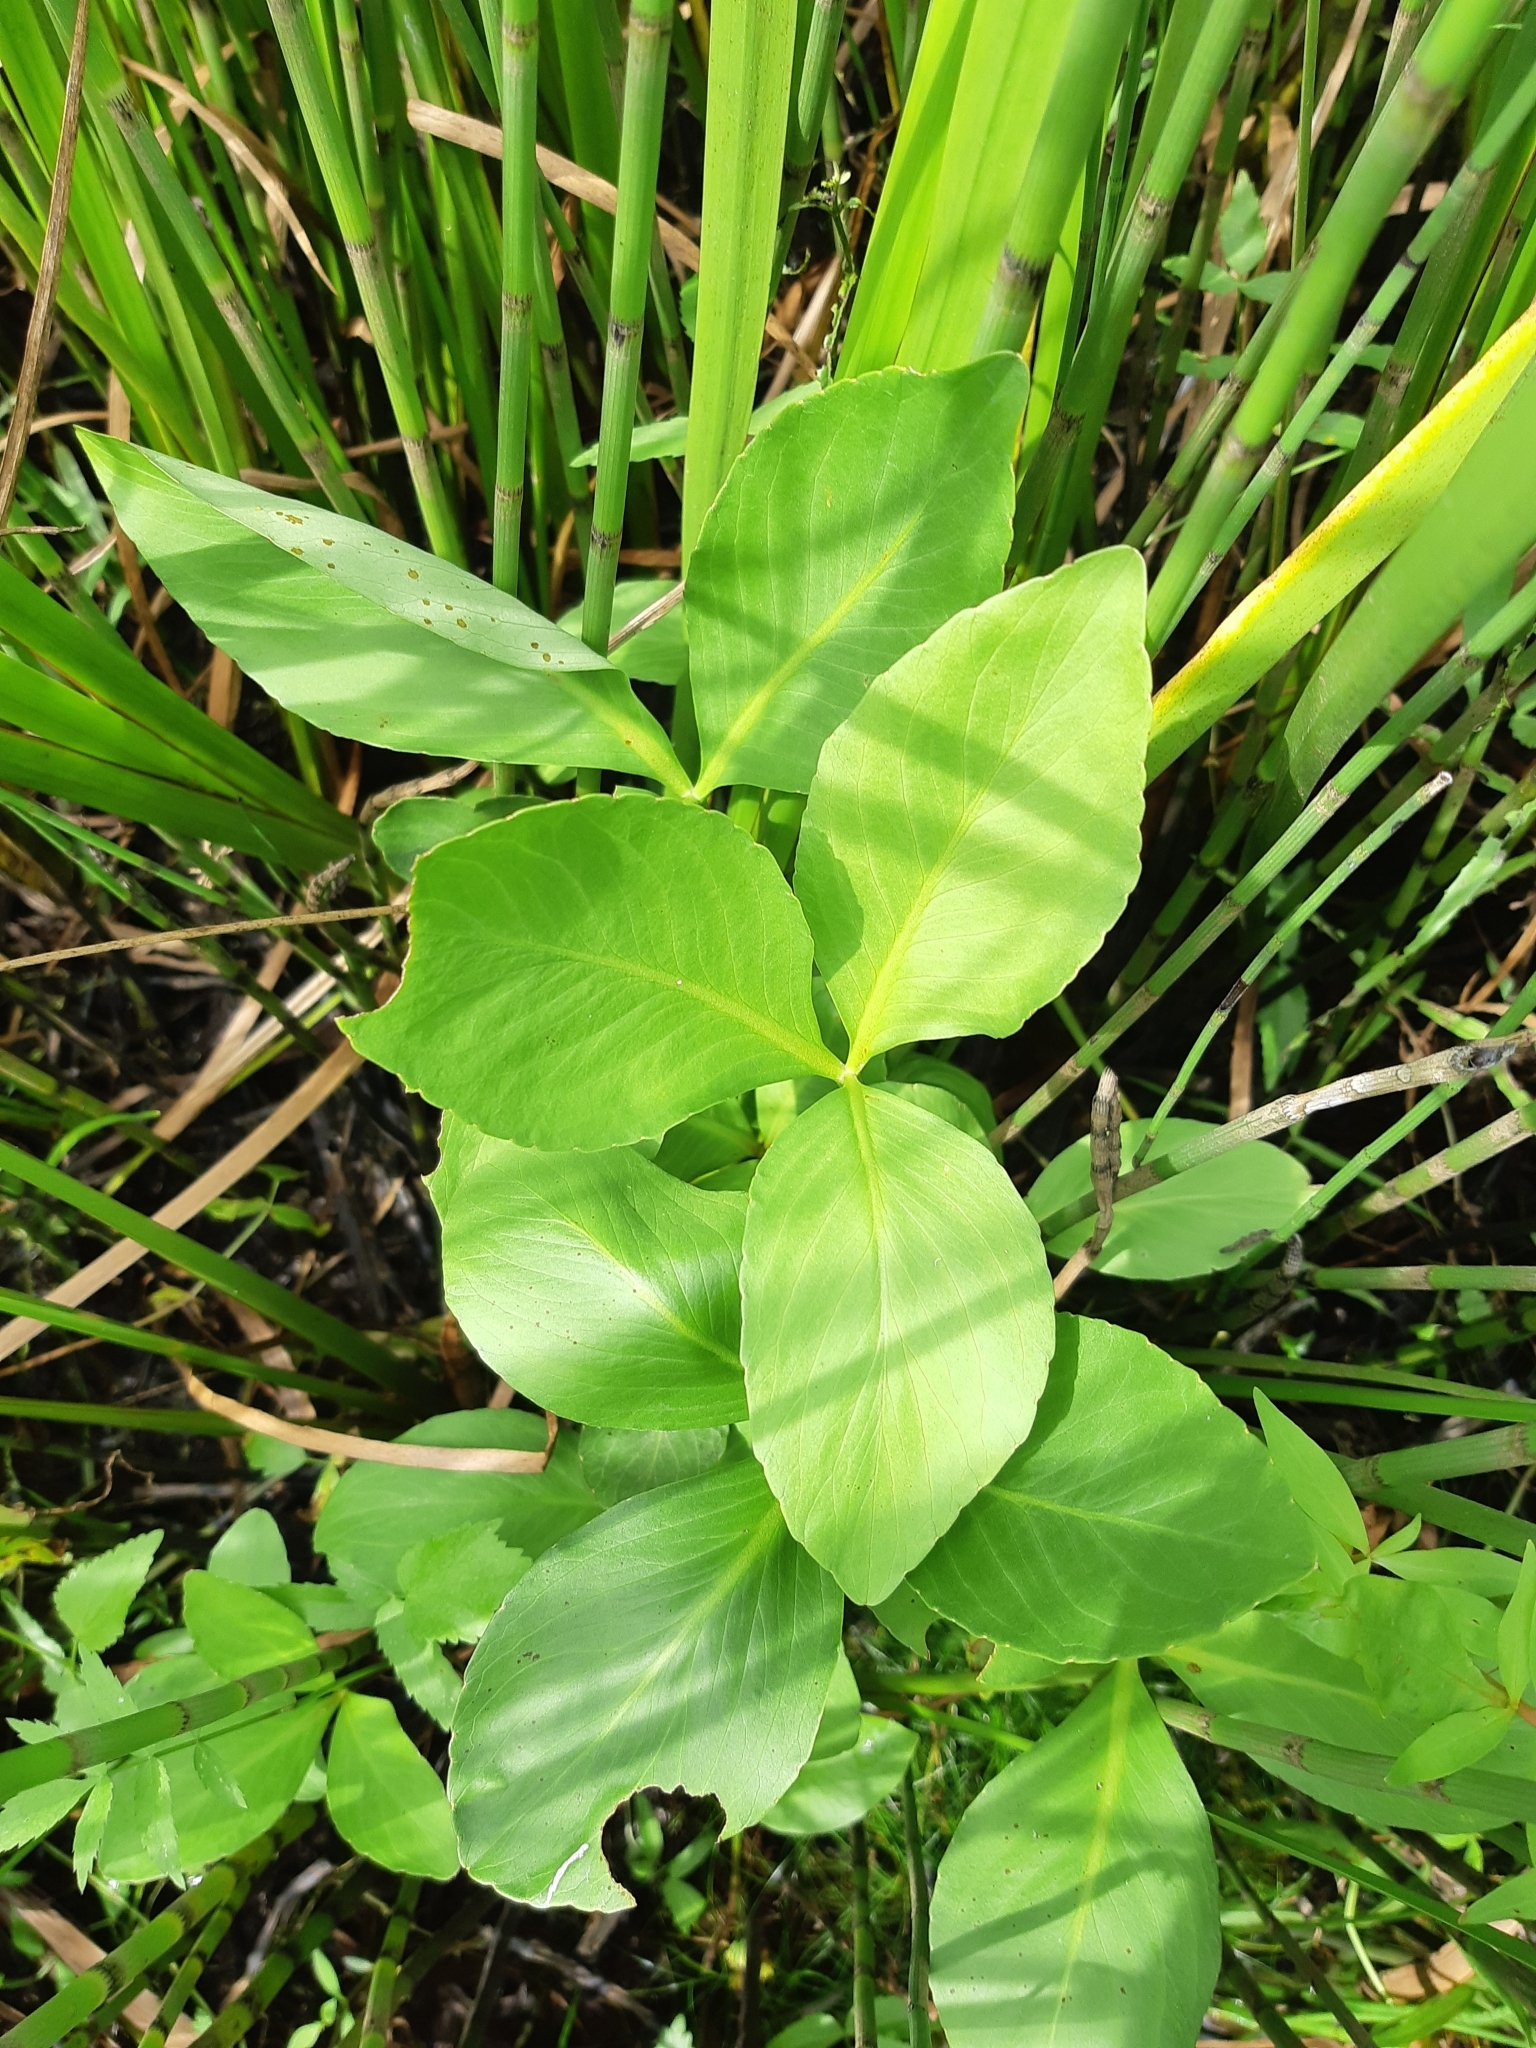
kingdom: Plantae
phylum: Tracheophyta
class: Magnoliopsida
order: Asterales
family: Menyanthaceae
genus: Menyanthes
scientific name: Menyanthes trifoliata
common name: Bogbean
